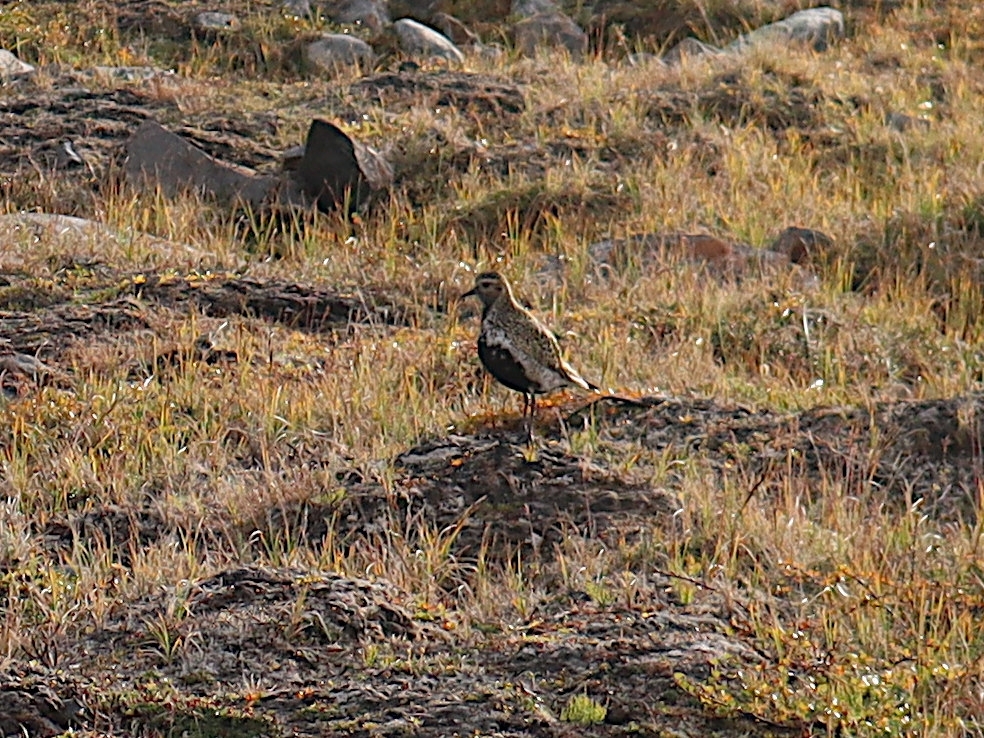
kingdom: Animalia
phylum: Chordata
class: Aves
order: Charadriiformes
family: Charadriidae
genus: Pluvialis
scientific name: Pluvialis apricaria
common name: European golden plover
